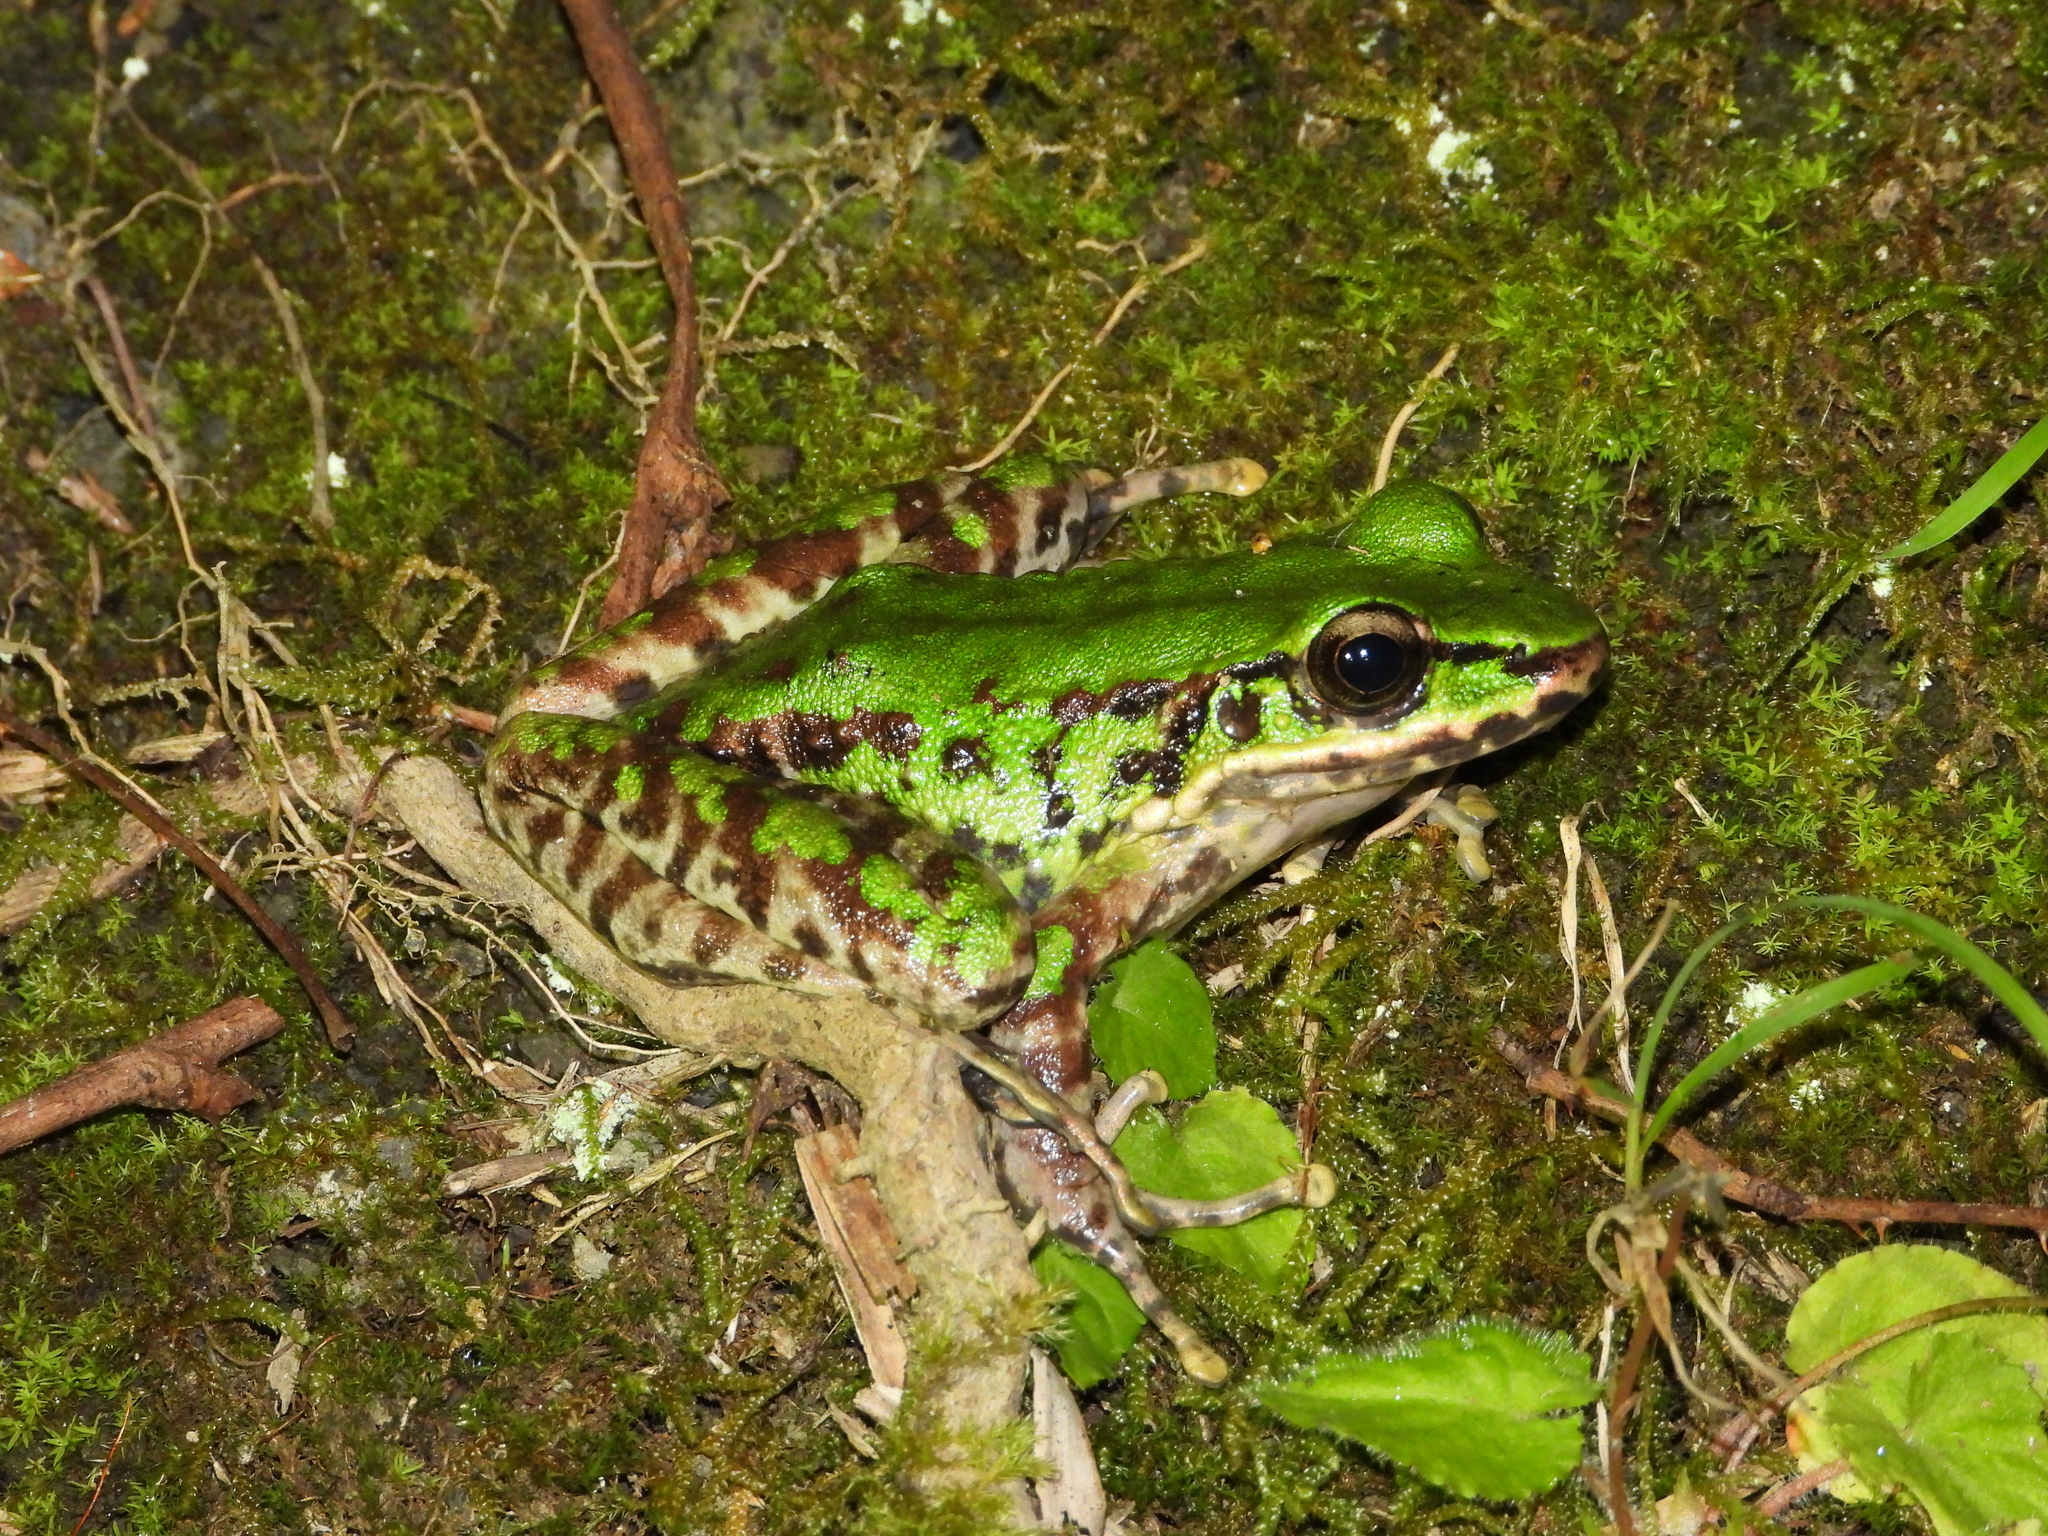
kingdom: Animalia
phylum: Chordata
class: Amphibia
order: Anura
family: Ranidae
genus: Odorrana
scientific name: Odorrana swinhoana
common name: Bangkimtsing frog
